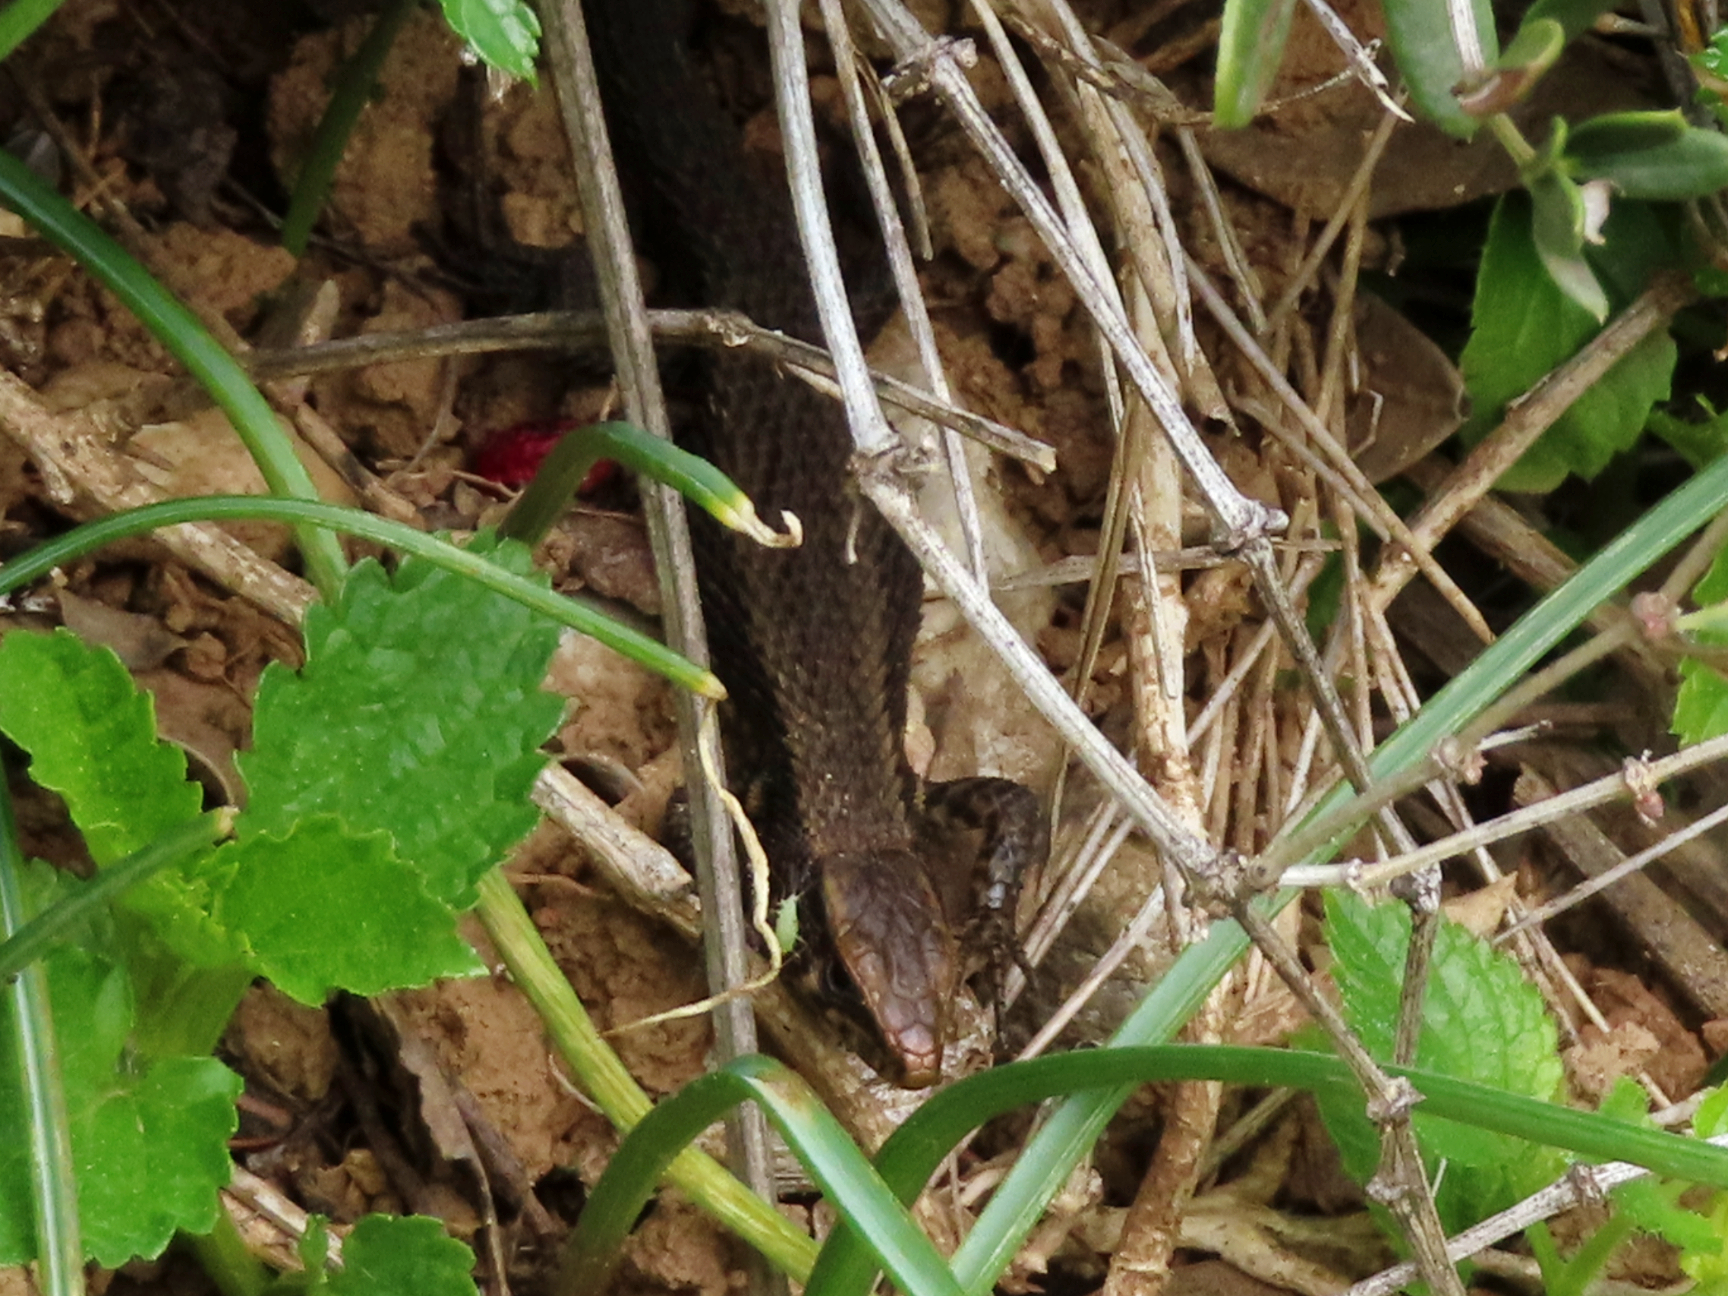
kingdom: Animalia
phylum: Chordata
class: Squamata
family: Lacertidae
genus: Algyroides
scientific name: Algyroides moreoticus
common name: Greek algyroides
